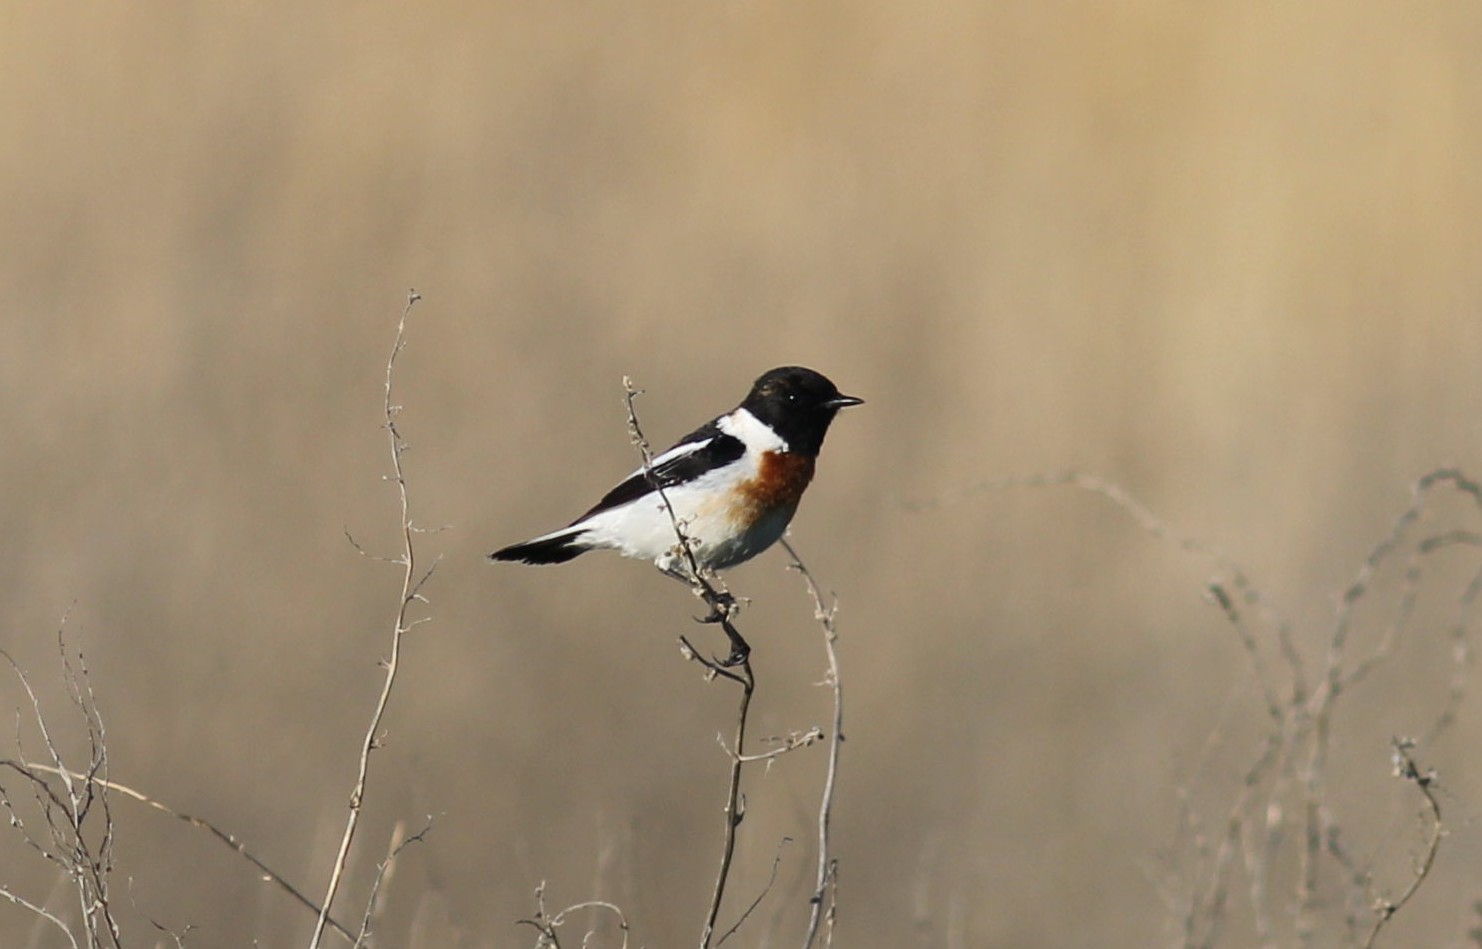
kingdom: Animalia
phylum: Chordata
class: Aves
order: Passeriformes
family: Muscicapidae
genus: Saxicola
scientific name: Saxicola rubicola
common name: European stonechat
